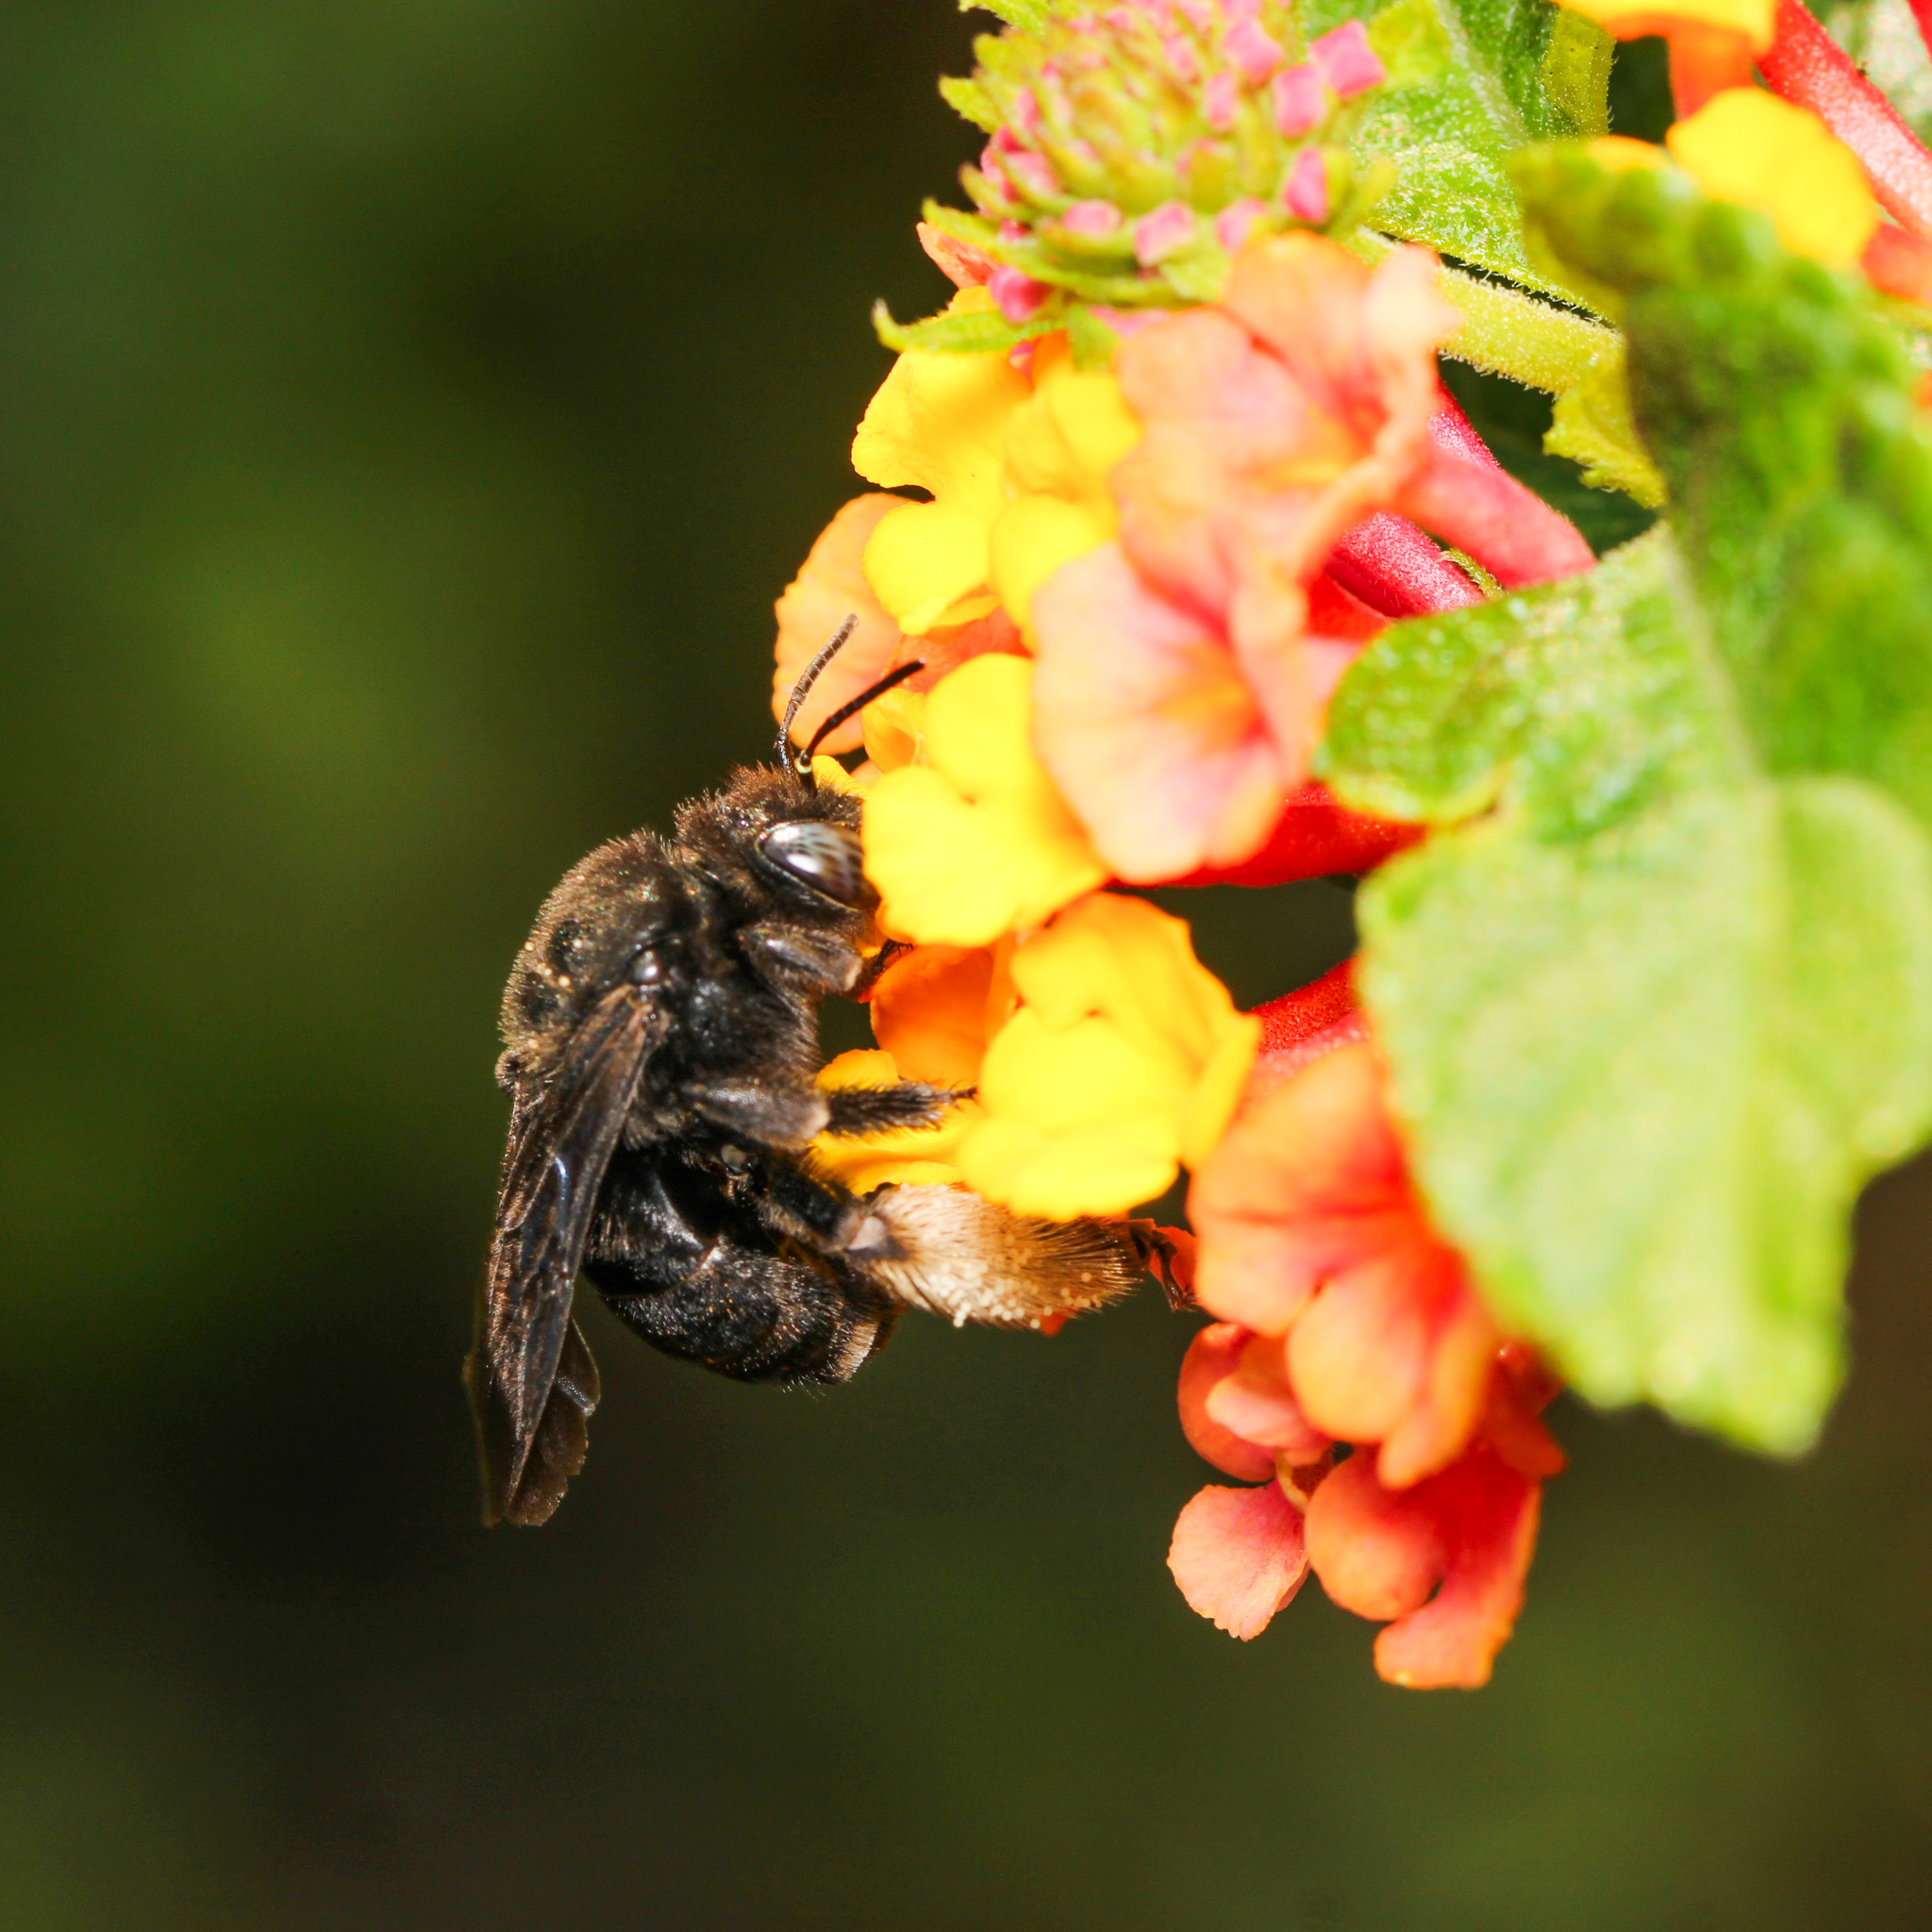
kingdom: Animalia
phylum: Arthropoda
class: Insecta
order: Hymenoptera
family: Apidae
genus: Melissodes
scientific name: Melissodes bimaculatus
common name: Two-spotted long-horned bee
